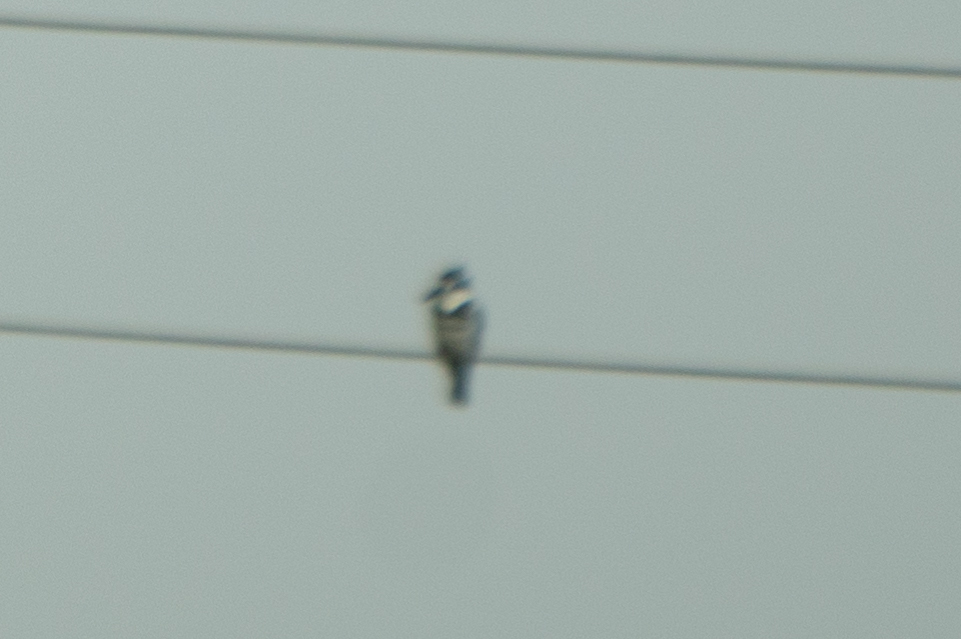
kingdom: Animalia
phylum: Chordata
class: Aves
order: Coraciiformes
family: Alcedinidae
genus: Ceryle
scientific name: Ceryle rudis
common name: Pied kingfisher
